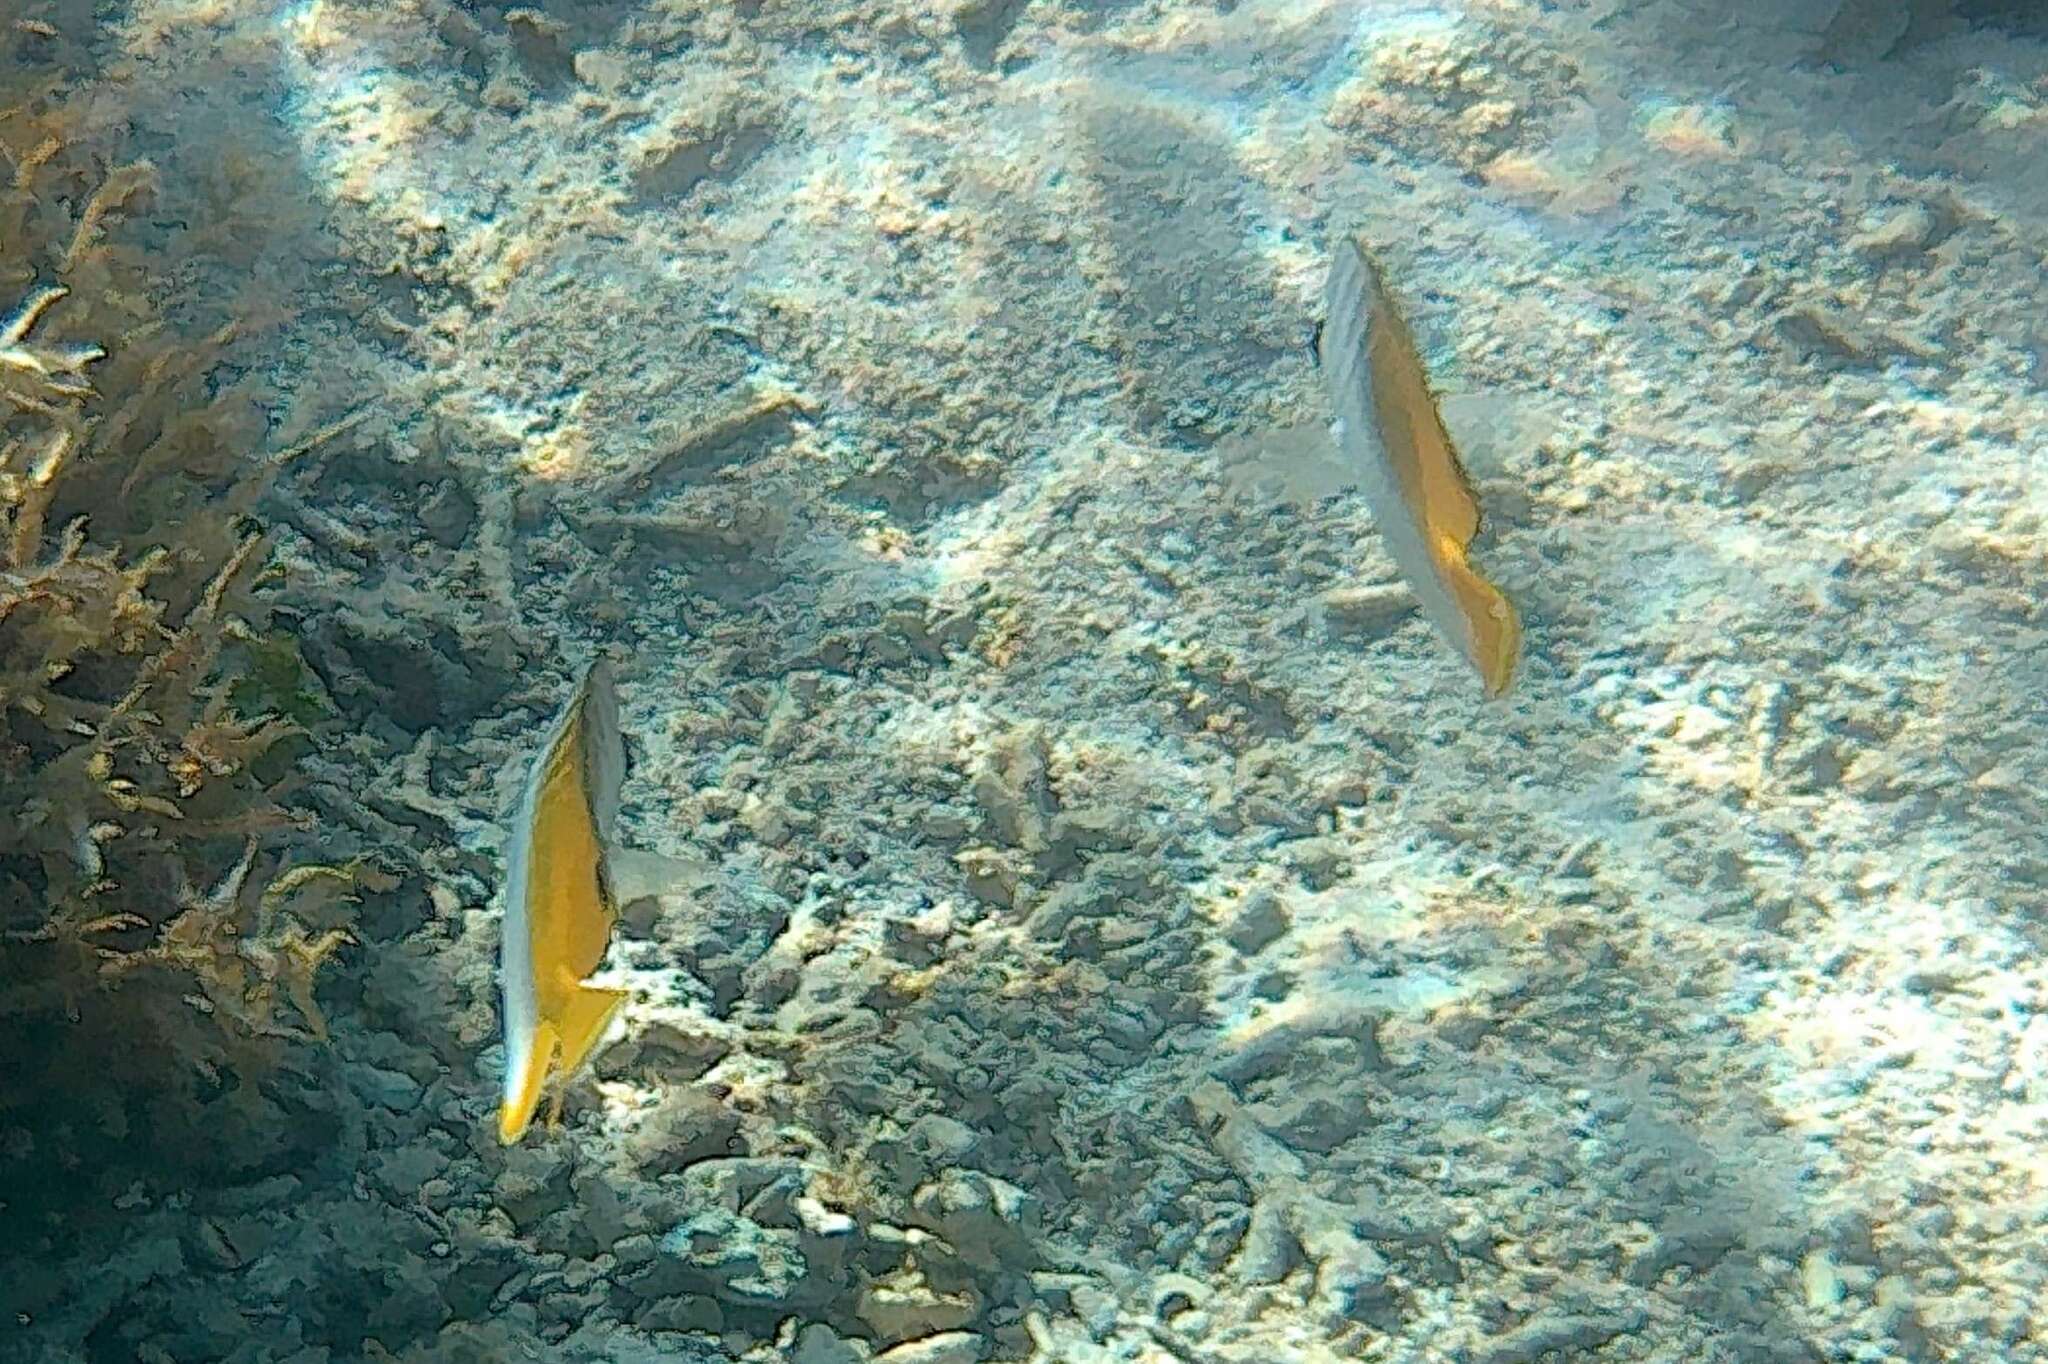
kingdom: Animalia
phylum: Chordata
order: Perciformes
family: Chaetodontidae
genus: Chaetodon
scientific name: Chaetodon auriga
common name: Threadfin butterflyfish
